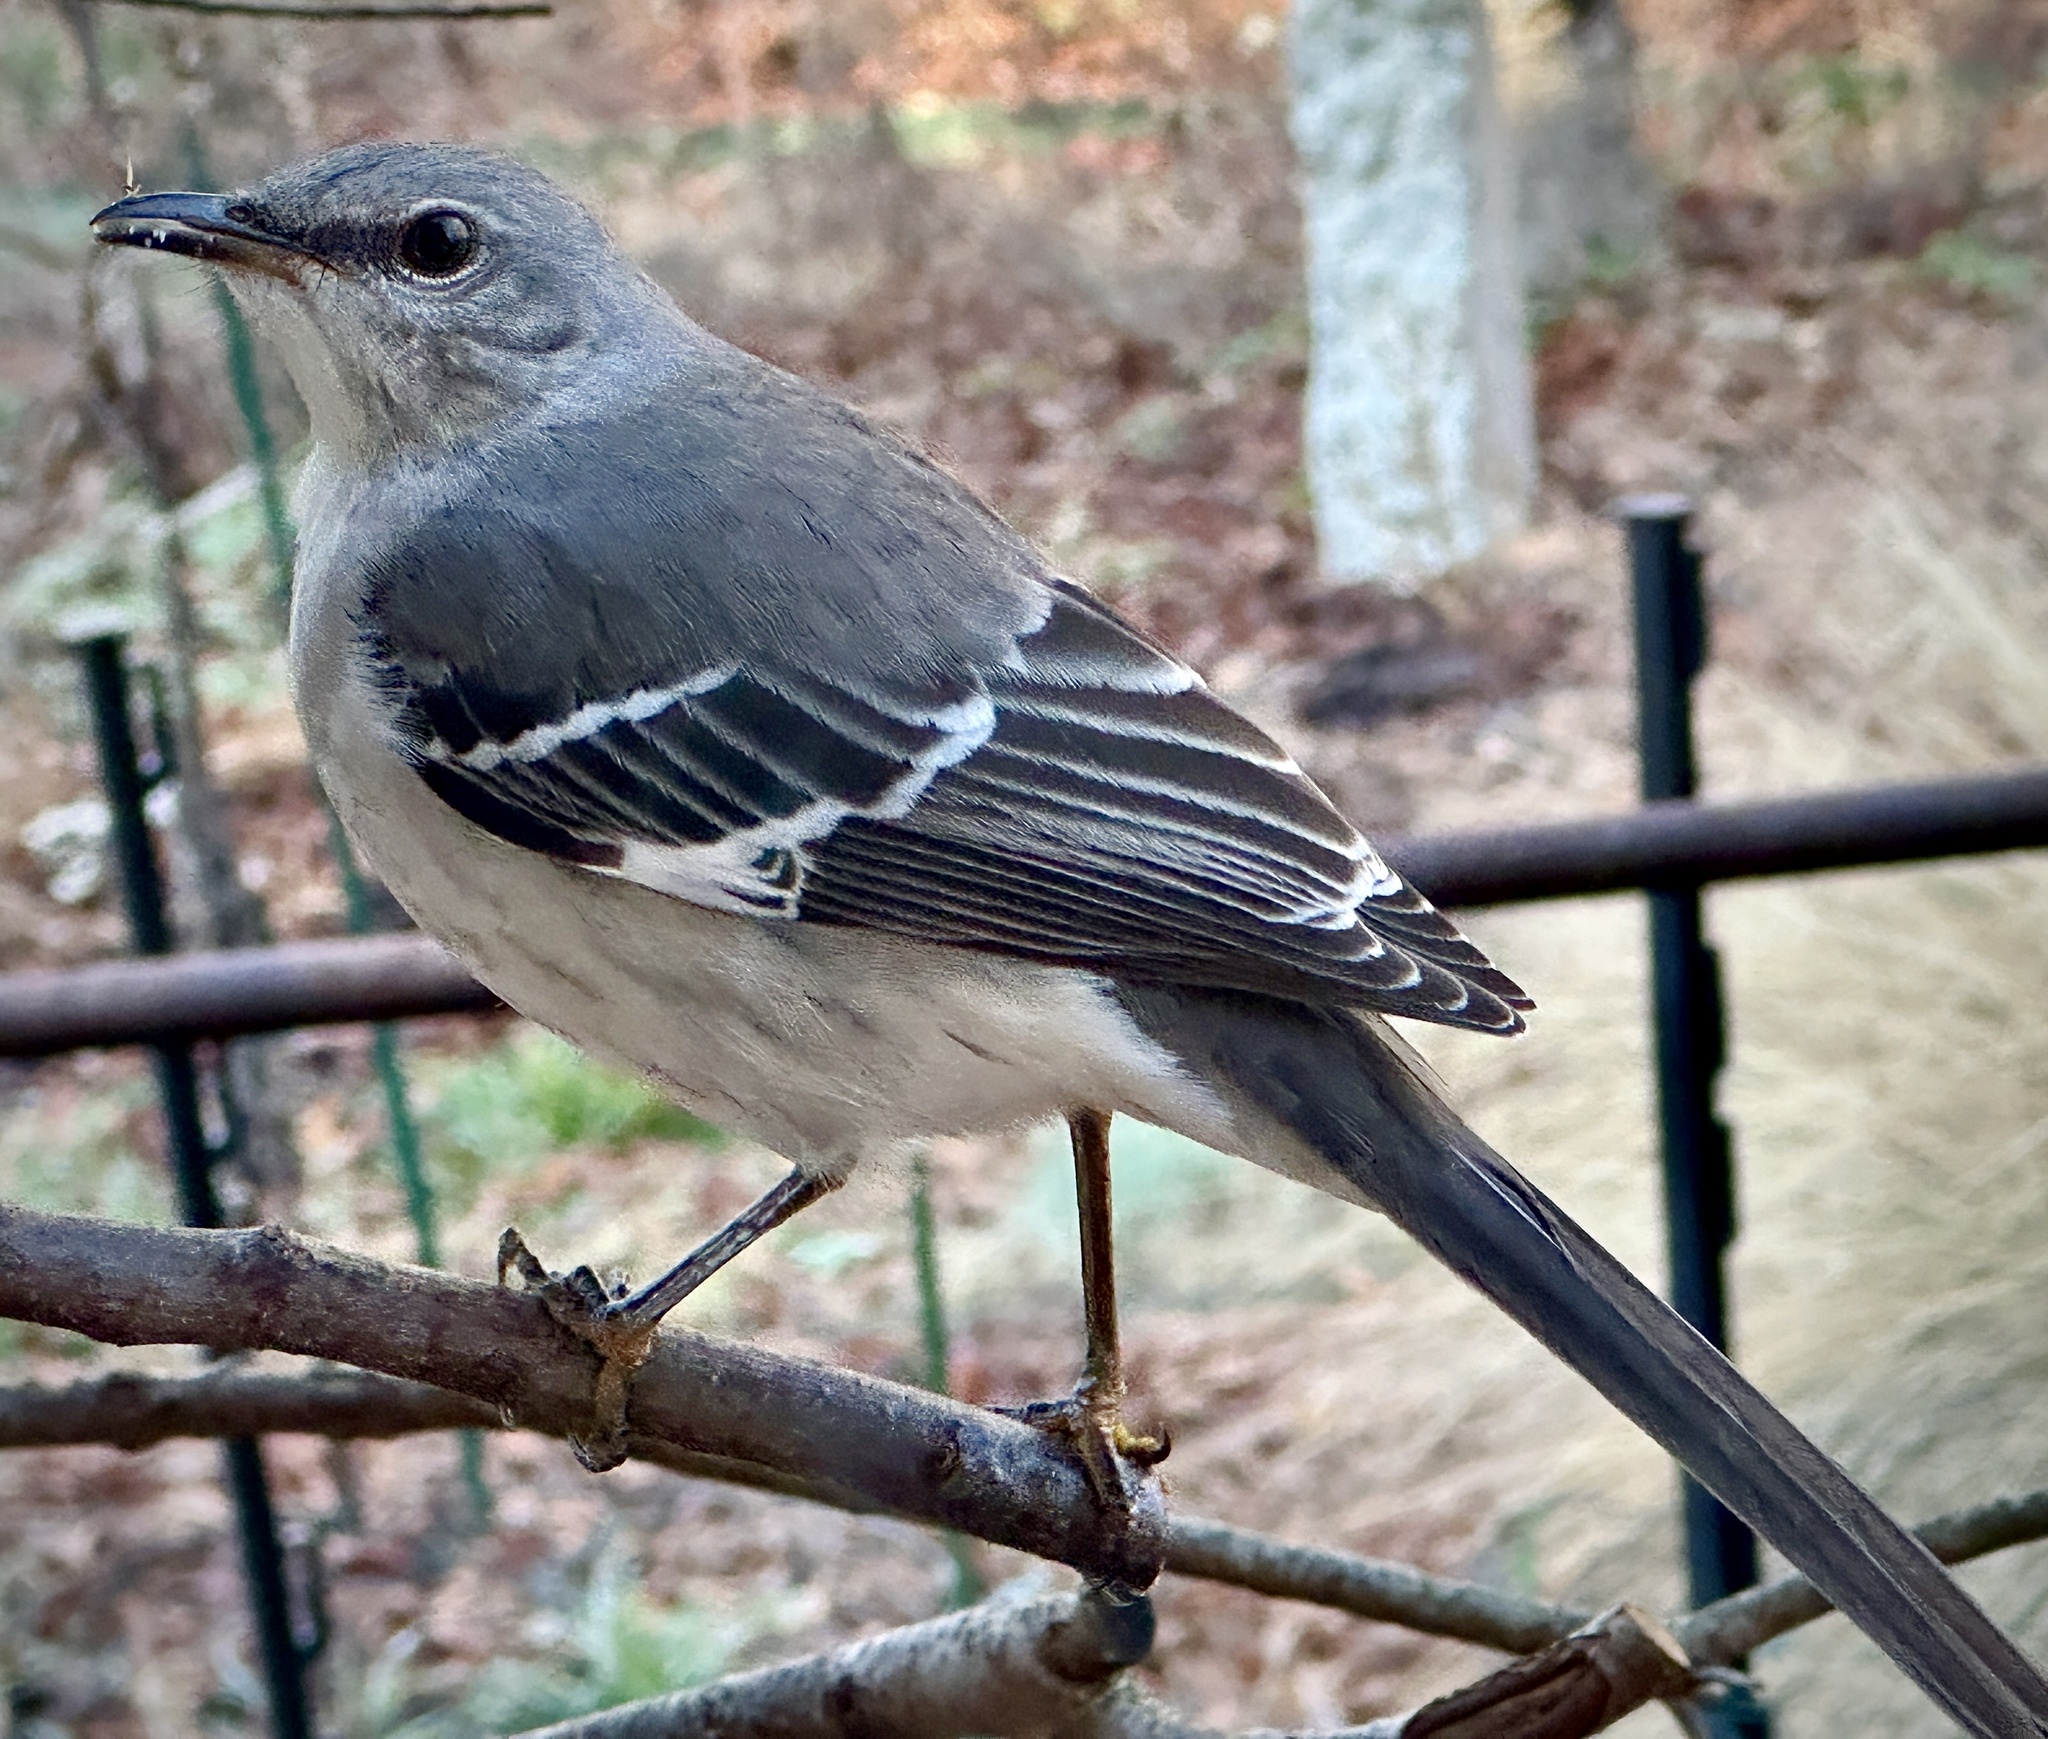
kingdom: Animalia
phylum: Chordata
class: Aves
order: Passeriformes
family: Mimidae
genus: Mimus
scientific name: Mimus polyglottos
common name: Northern mockingbird
